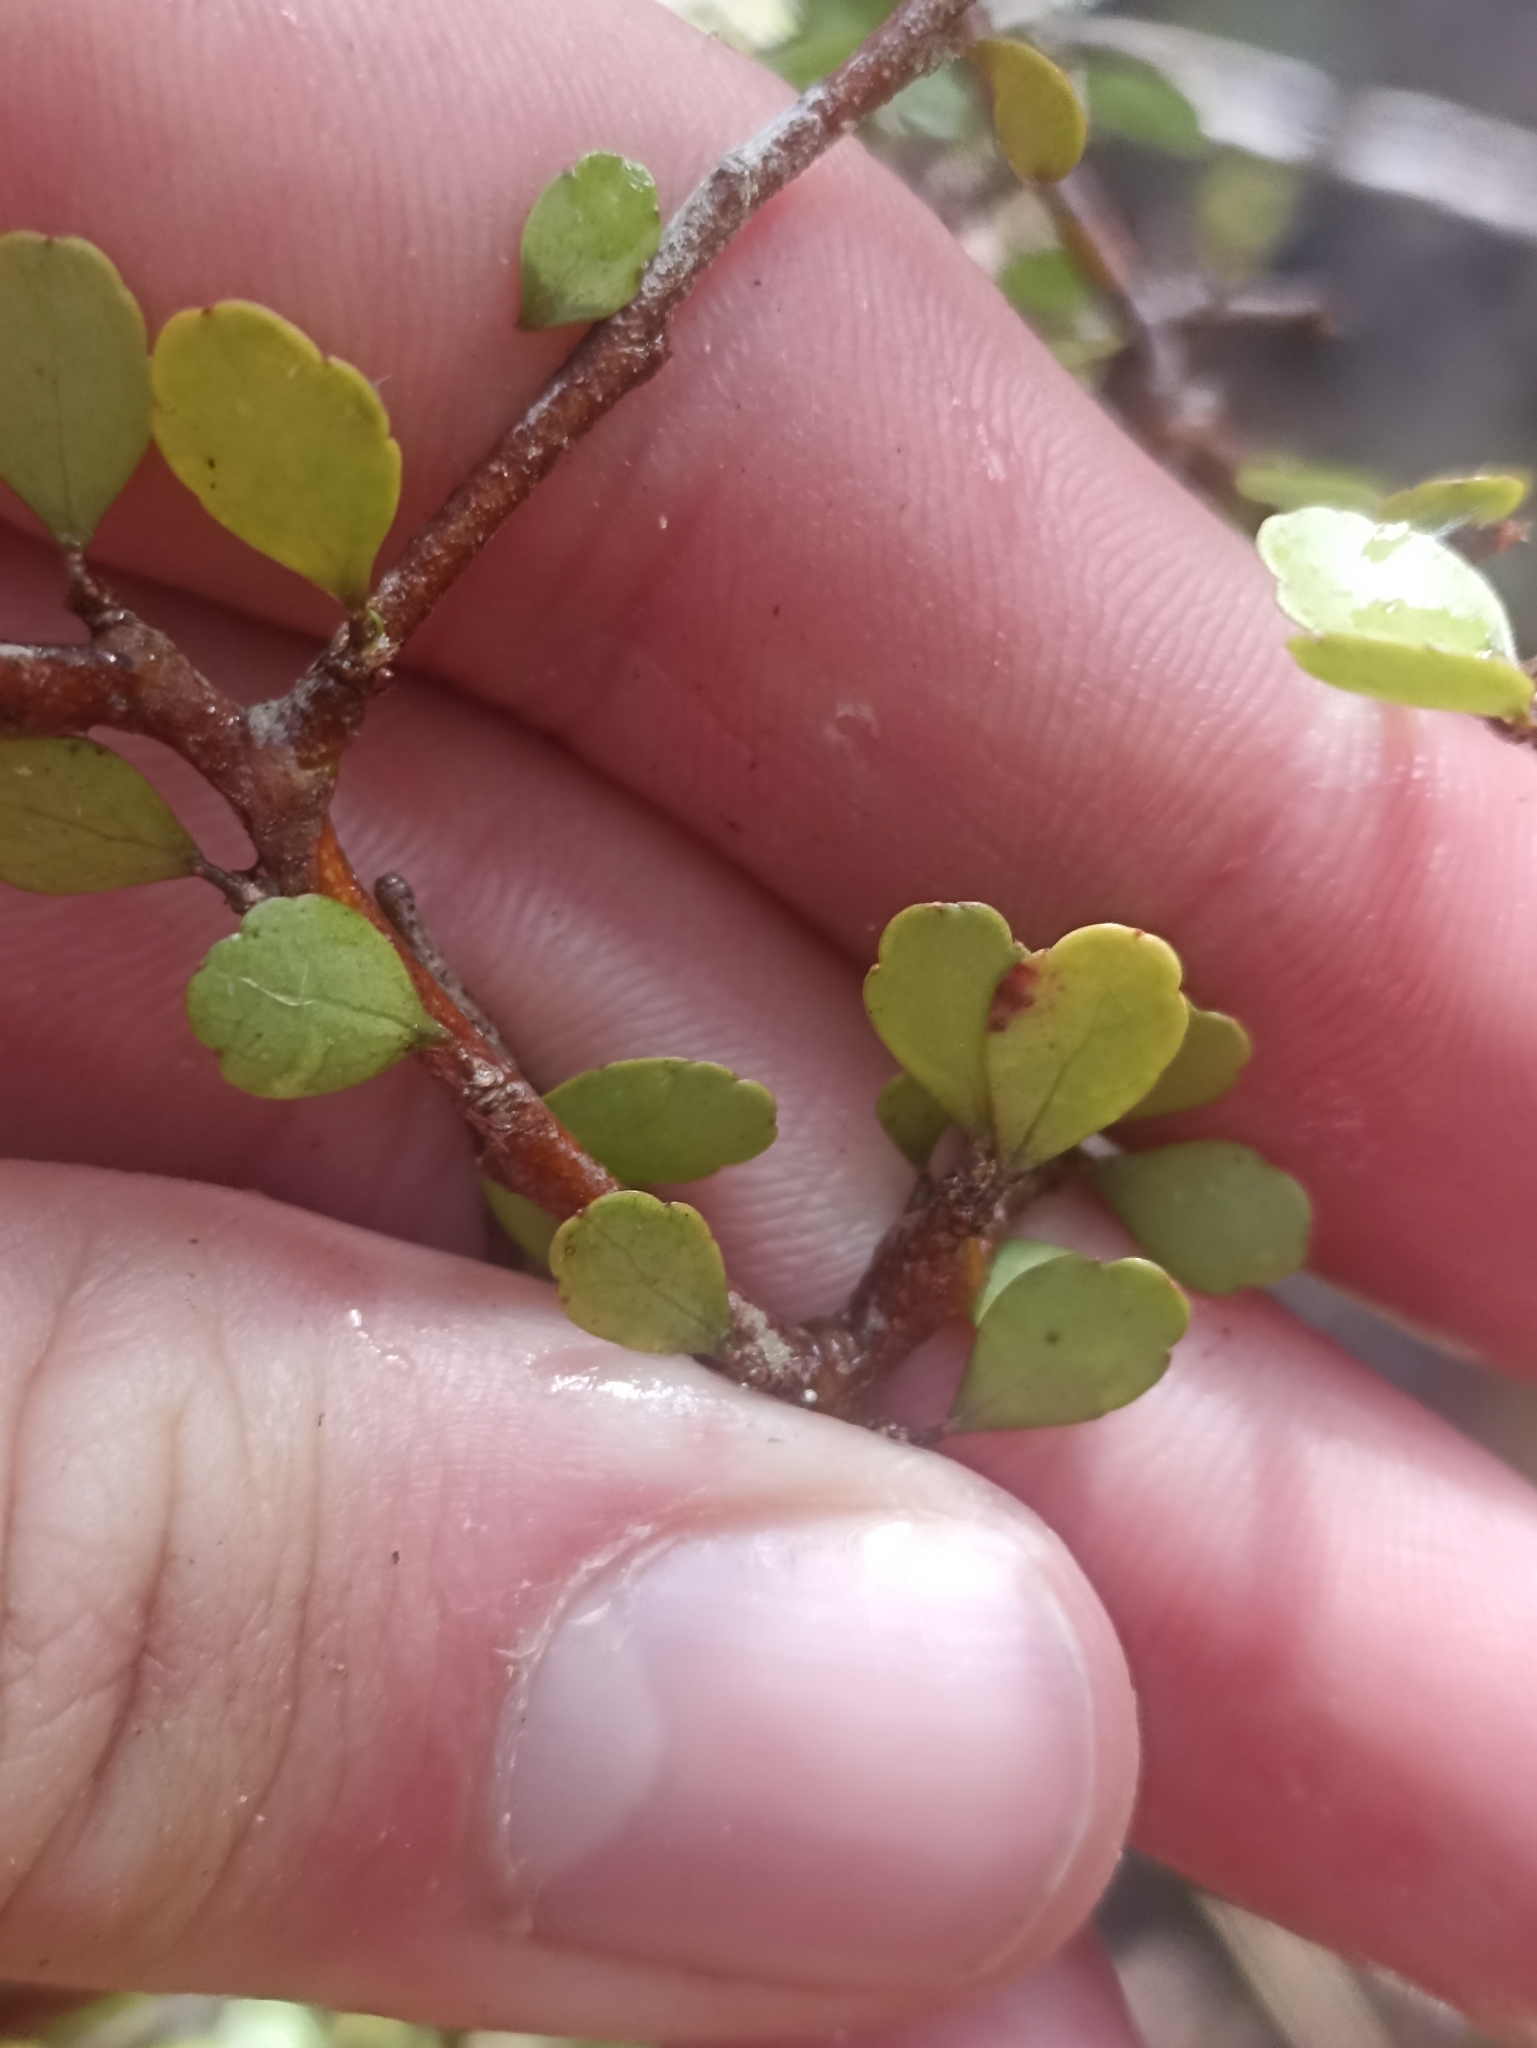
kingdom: Plantae
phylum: Tracheophyta
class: Magnoliopsida
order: Apiales
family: Araliaceae
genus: Raukaua
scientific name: Raukaua anomalus
